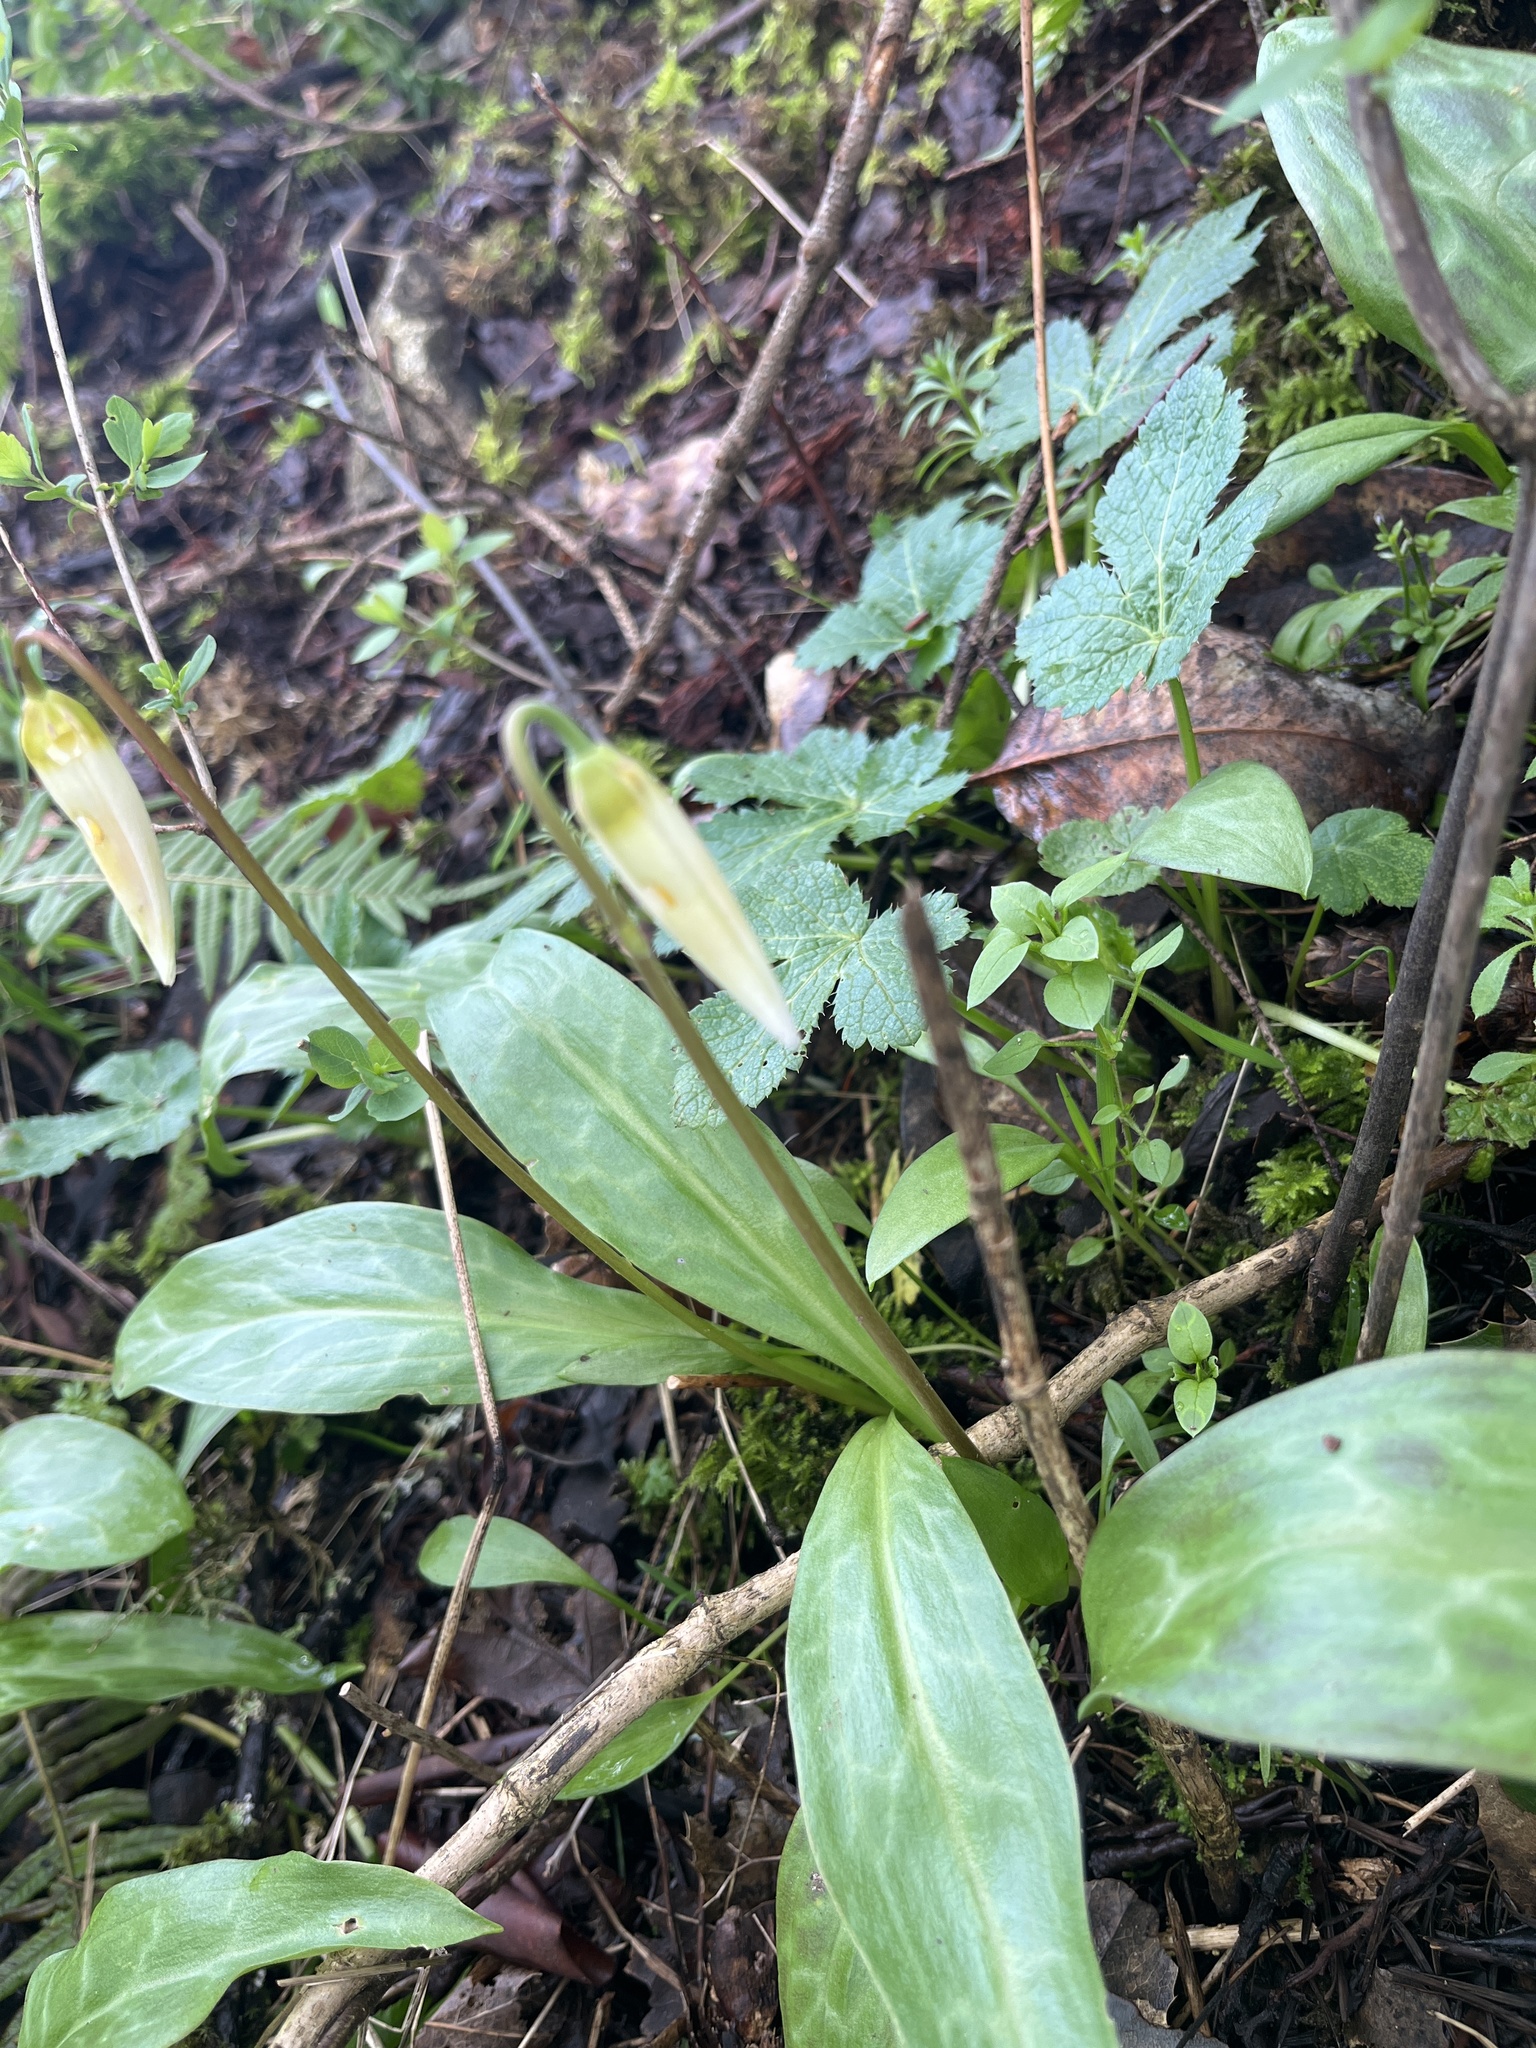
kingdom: Plantae
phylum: Tracheophyta
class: Liliopsida
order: Liliales
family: Liliaceae
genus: Erythronium
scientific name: Erythronium oregonum
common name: Giant adder's-tongue
